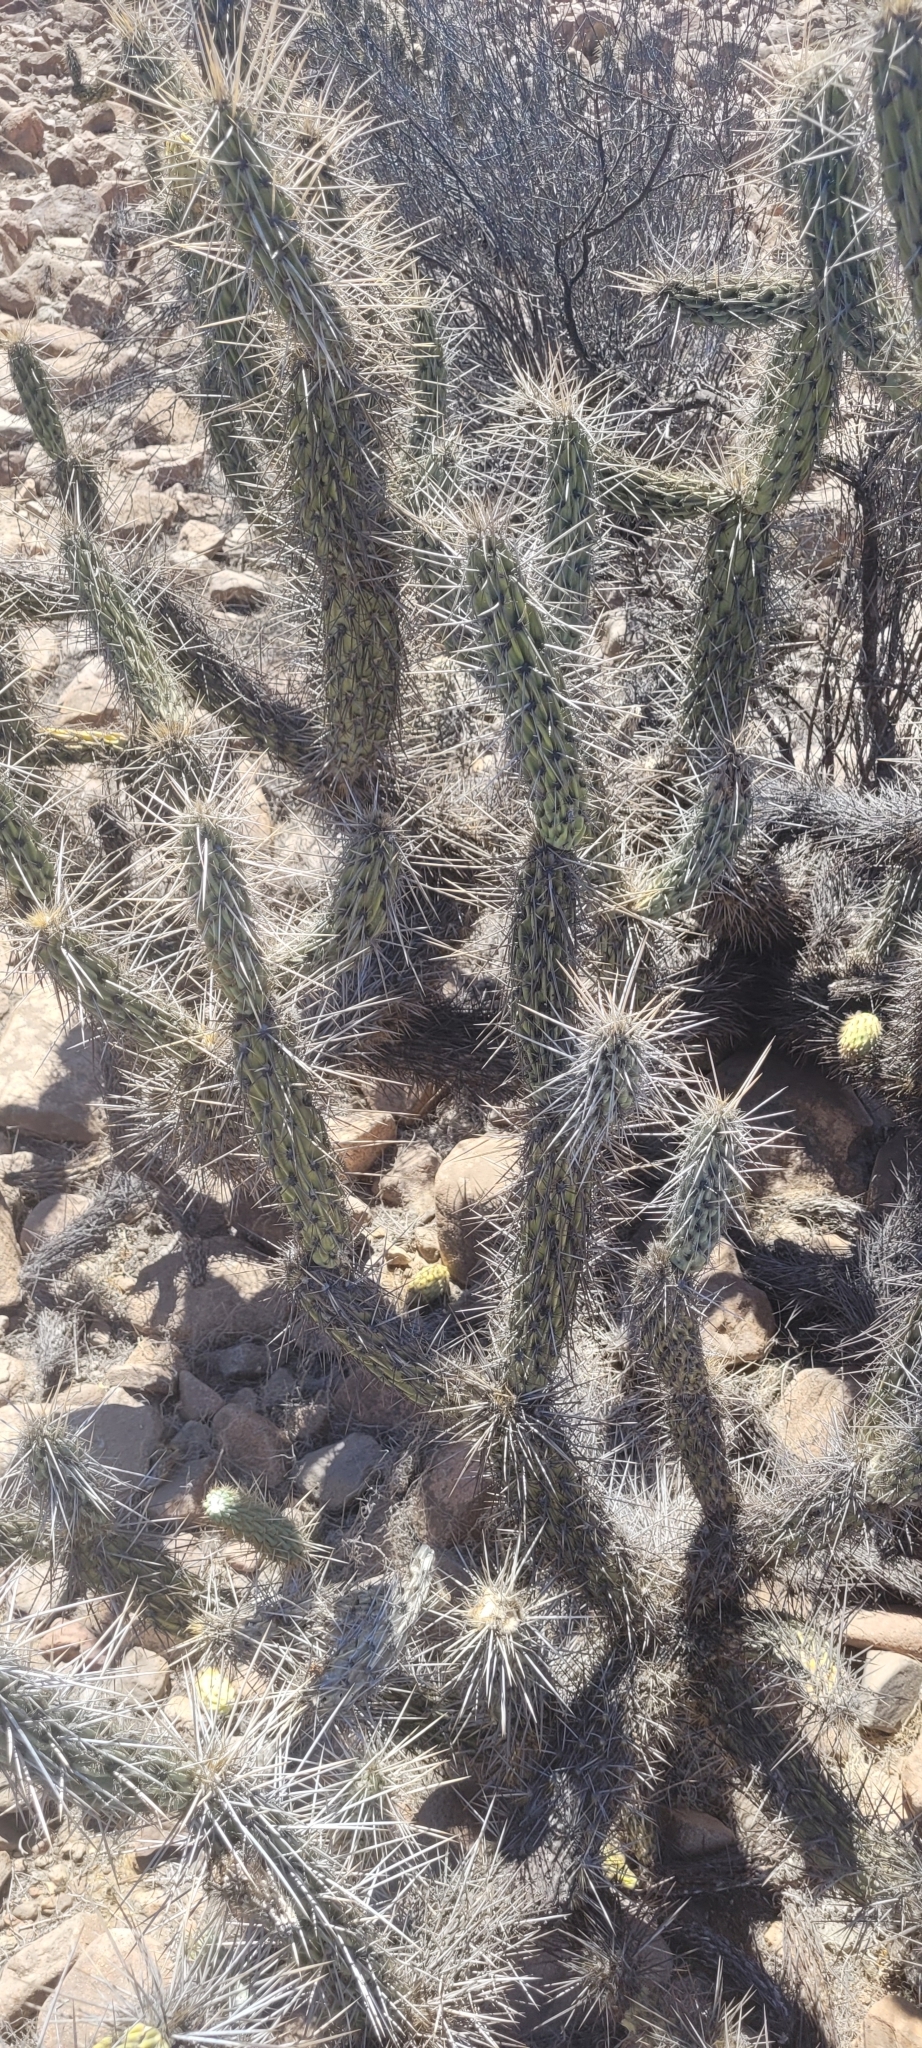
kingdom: Plantae
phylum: Tracheophyta
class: Magnoliopsida
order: Caryophyllales
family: Cactaceae
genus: Miqueliopuntia
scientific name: Miqueliopuntia miquelii
